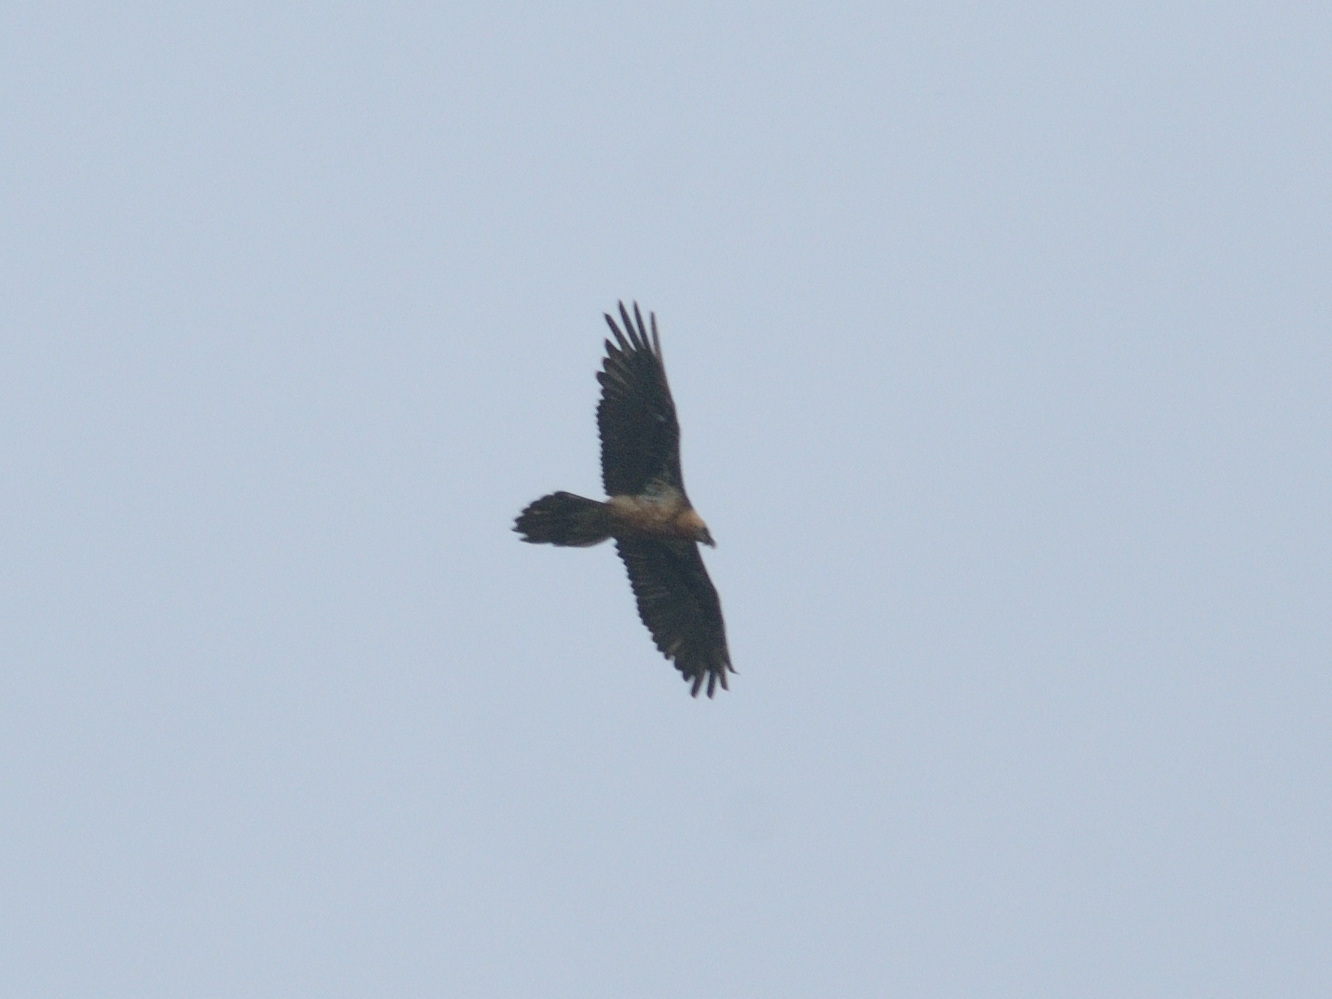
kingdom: Animalia
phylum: Chordata
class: Aves
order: Accipitriformes
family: Accipitridae
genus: Gypaetus
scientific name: Gypaetus barbatus
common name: Bearded vulture
